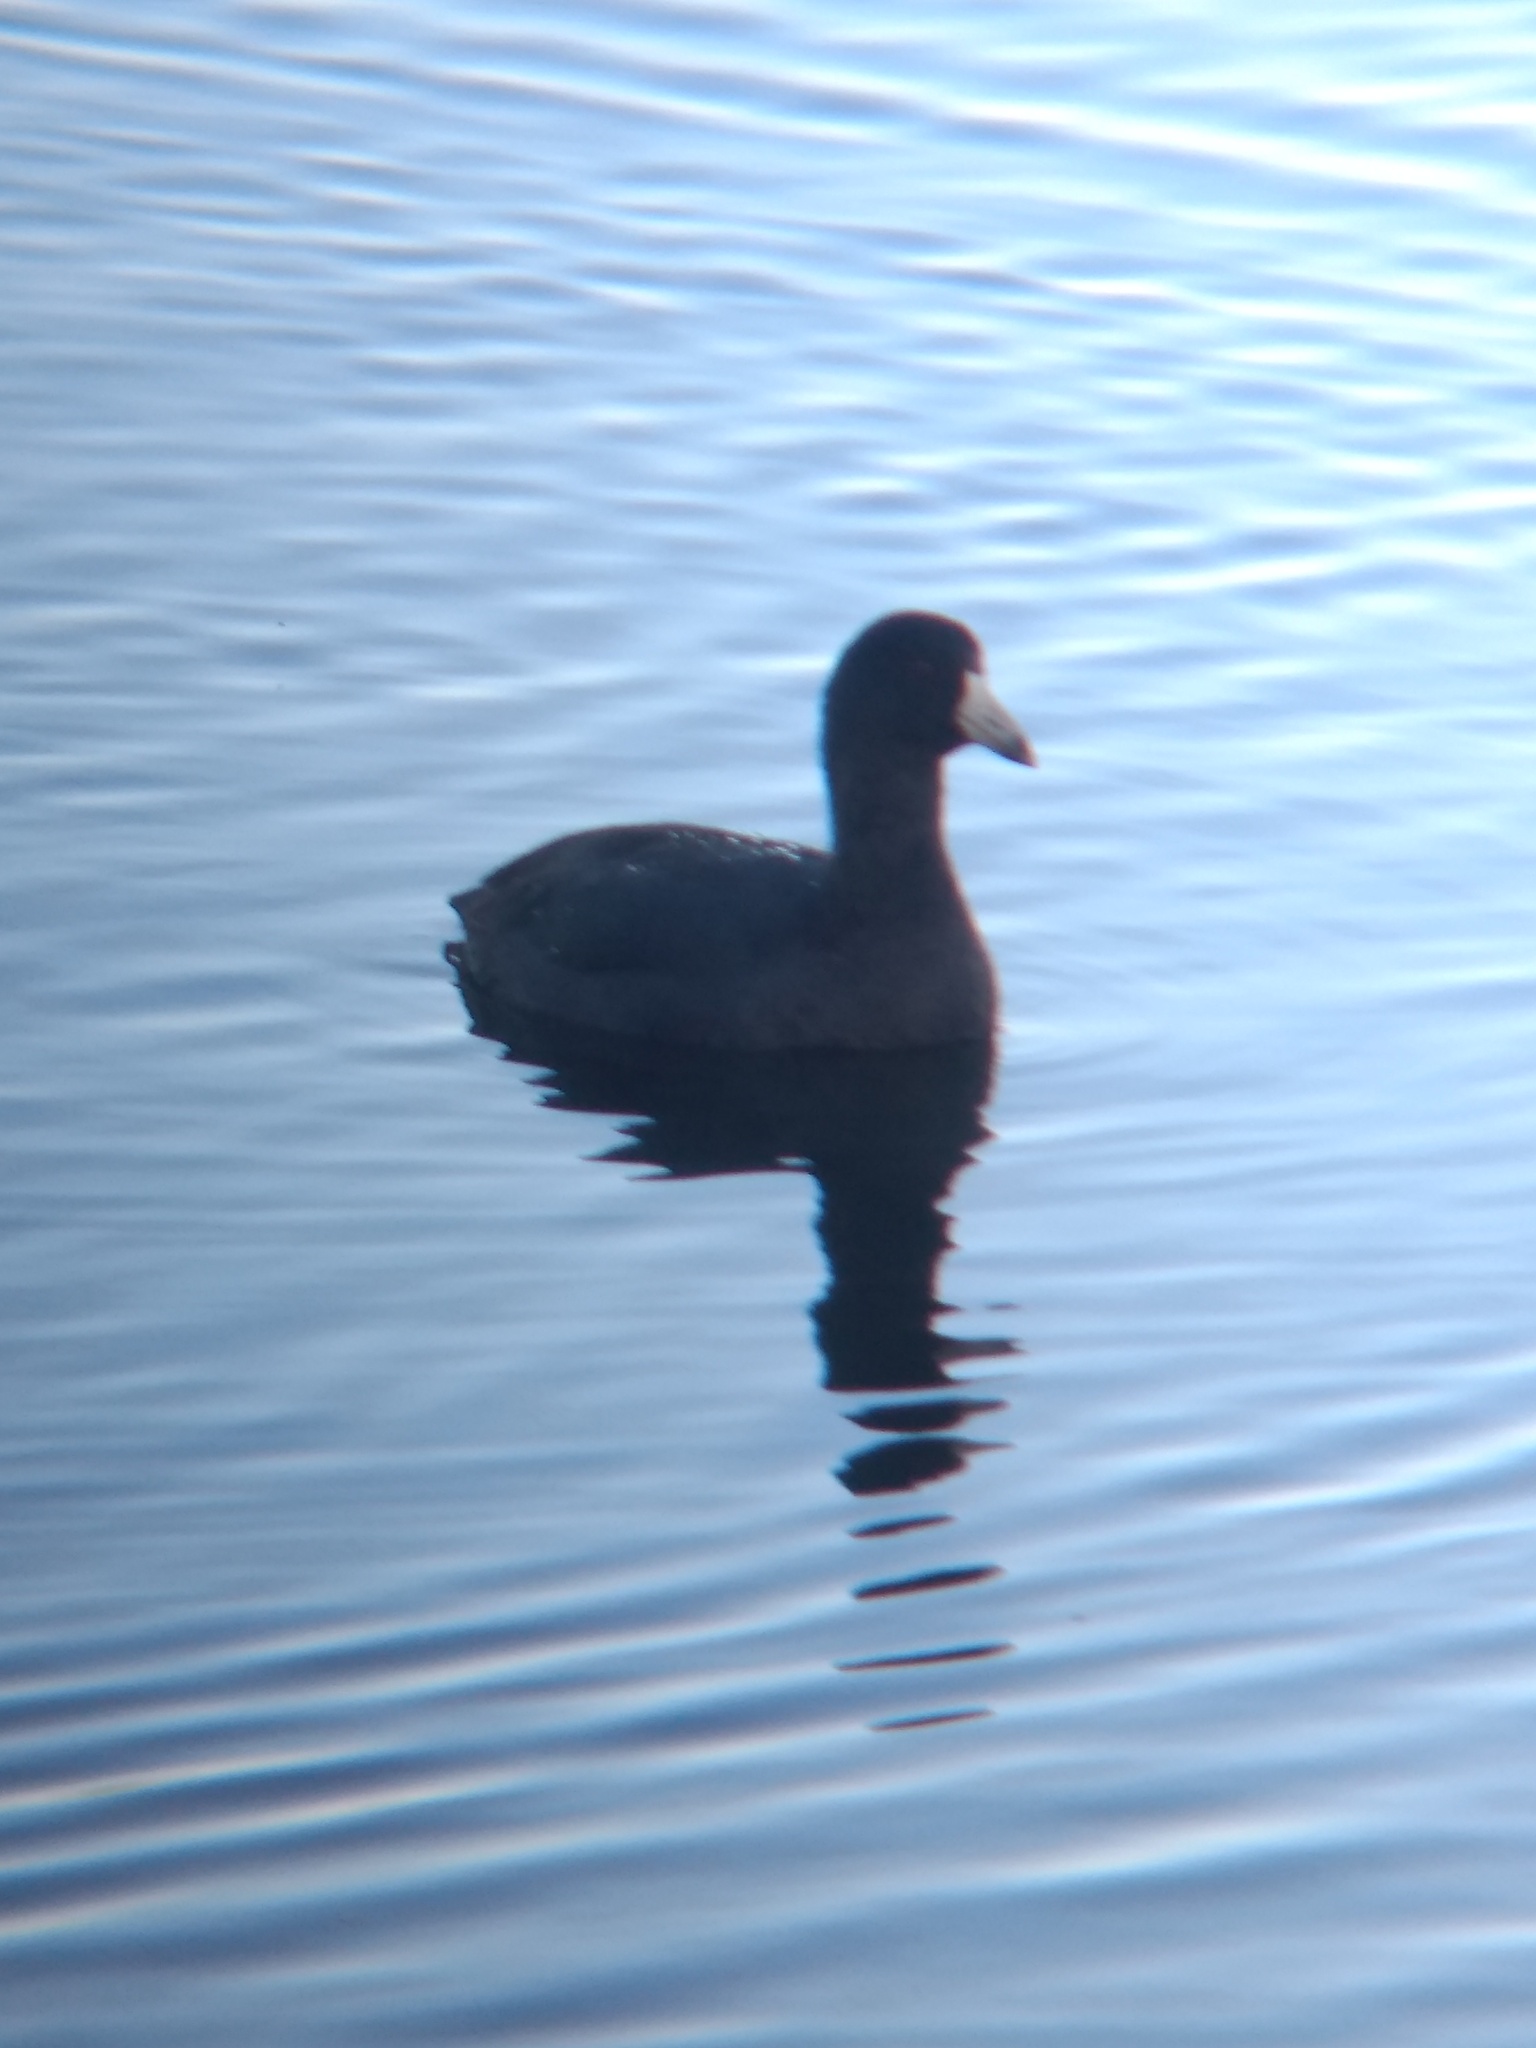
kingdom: Animalia
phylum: Chordata
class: Aves
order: Gruiformes
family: Rallidae
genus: Fulica
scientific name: Fulica americana
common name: American coot
